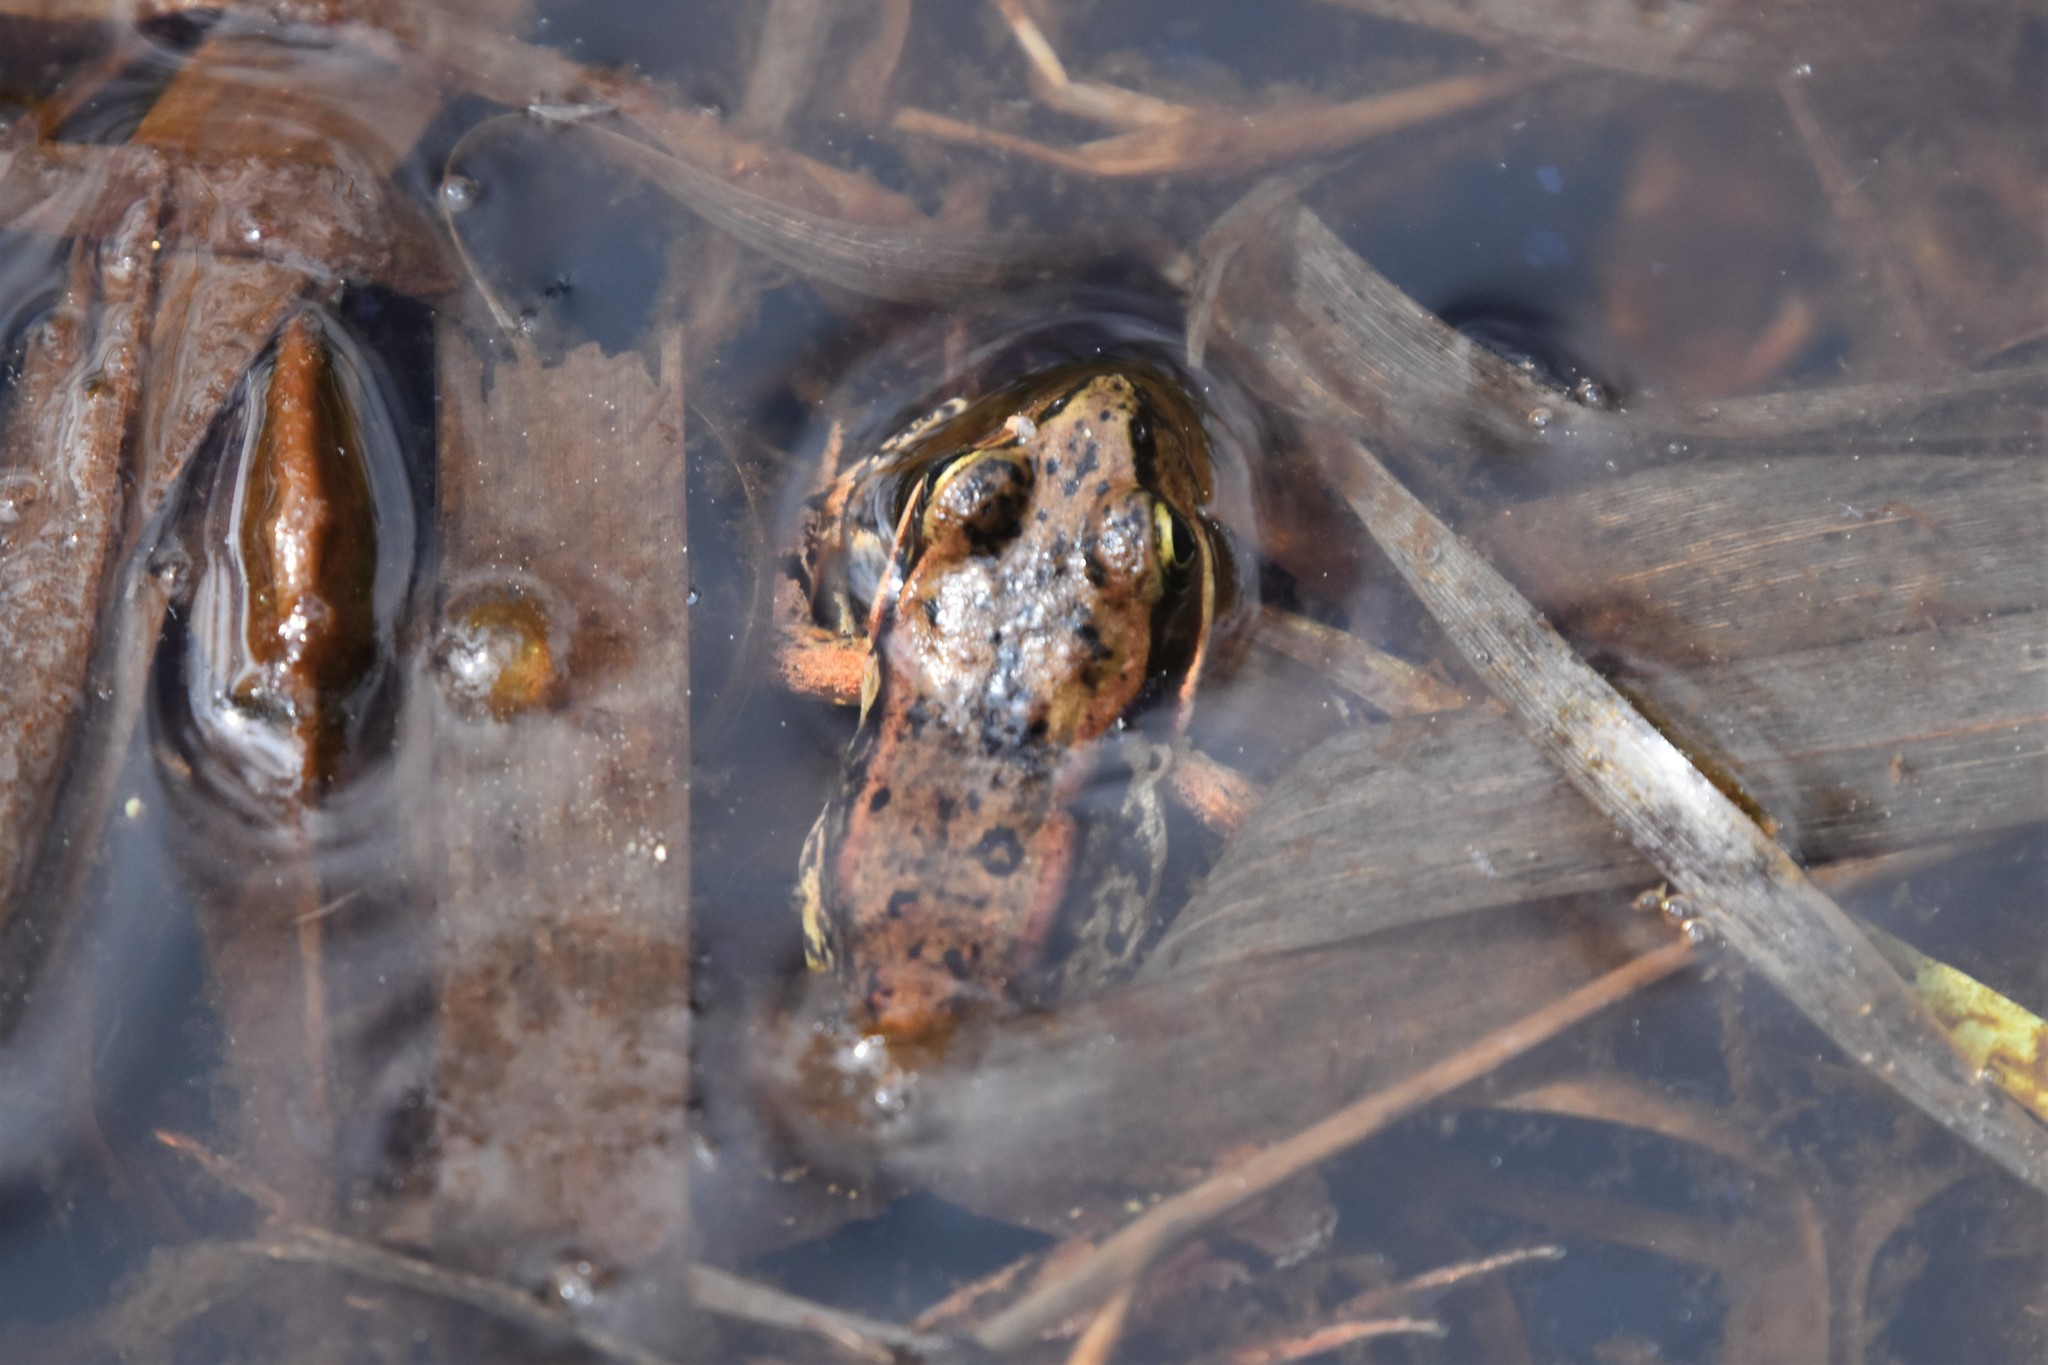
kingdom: Animalia
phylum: Chordata
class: Amphibia
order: Anura
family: Ranidae
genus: Rana
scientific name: Rana aurora
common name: Red-legged frog
